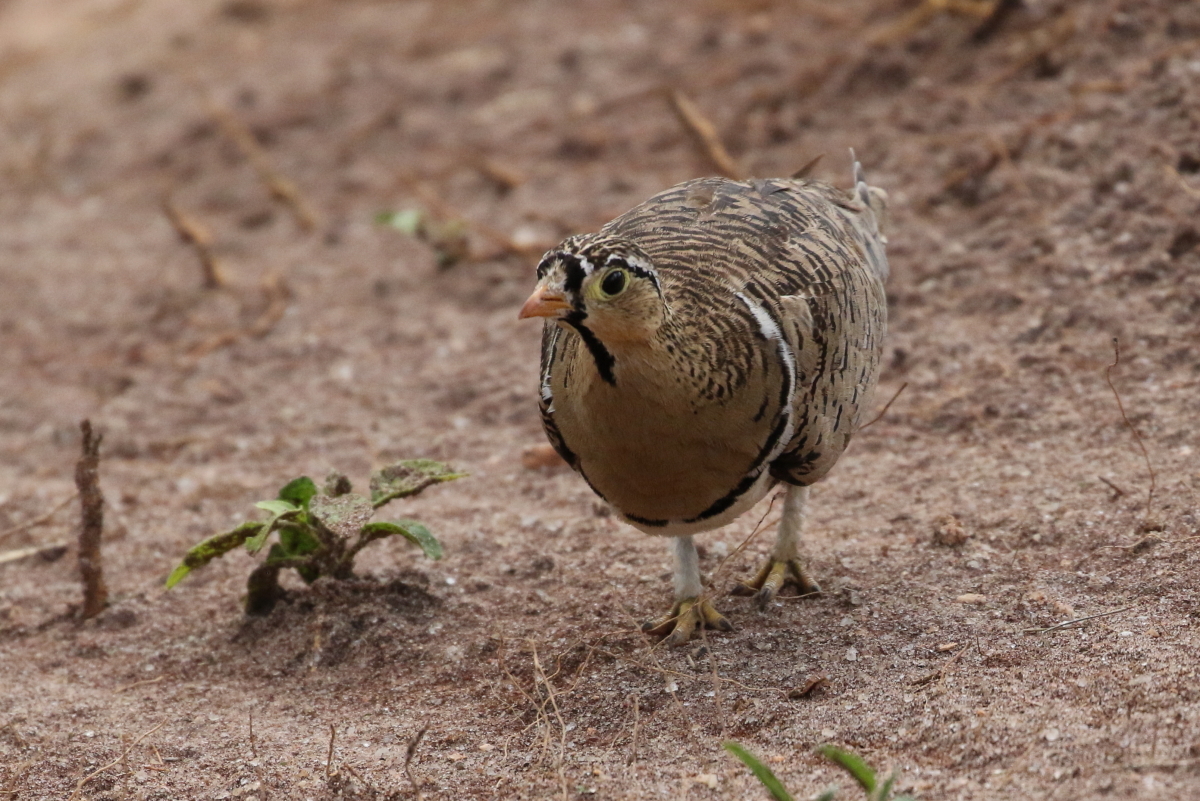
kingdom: Animalia
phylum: Chordata
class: Aves
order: Pteroclidiformes
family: Pteroclididae
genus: Pterocles
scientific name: Pterocles decoratus
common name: Black-faced sandgrouse
